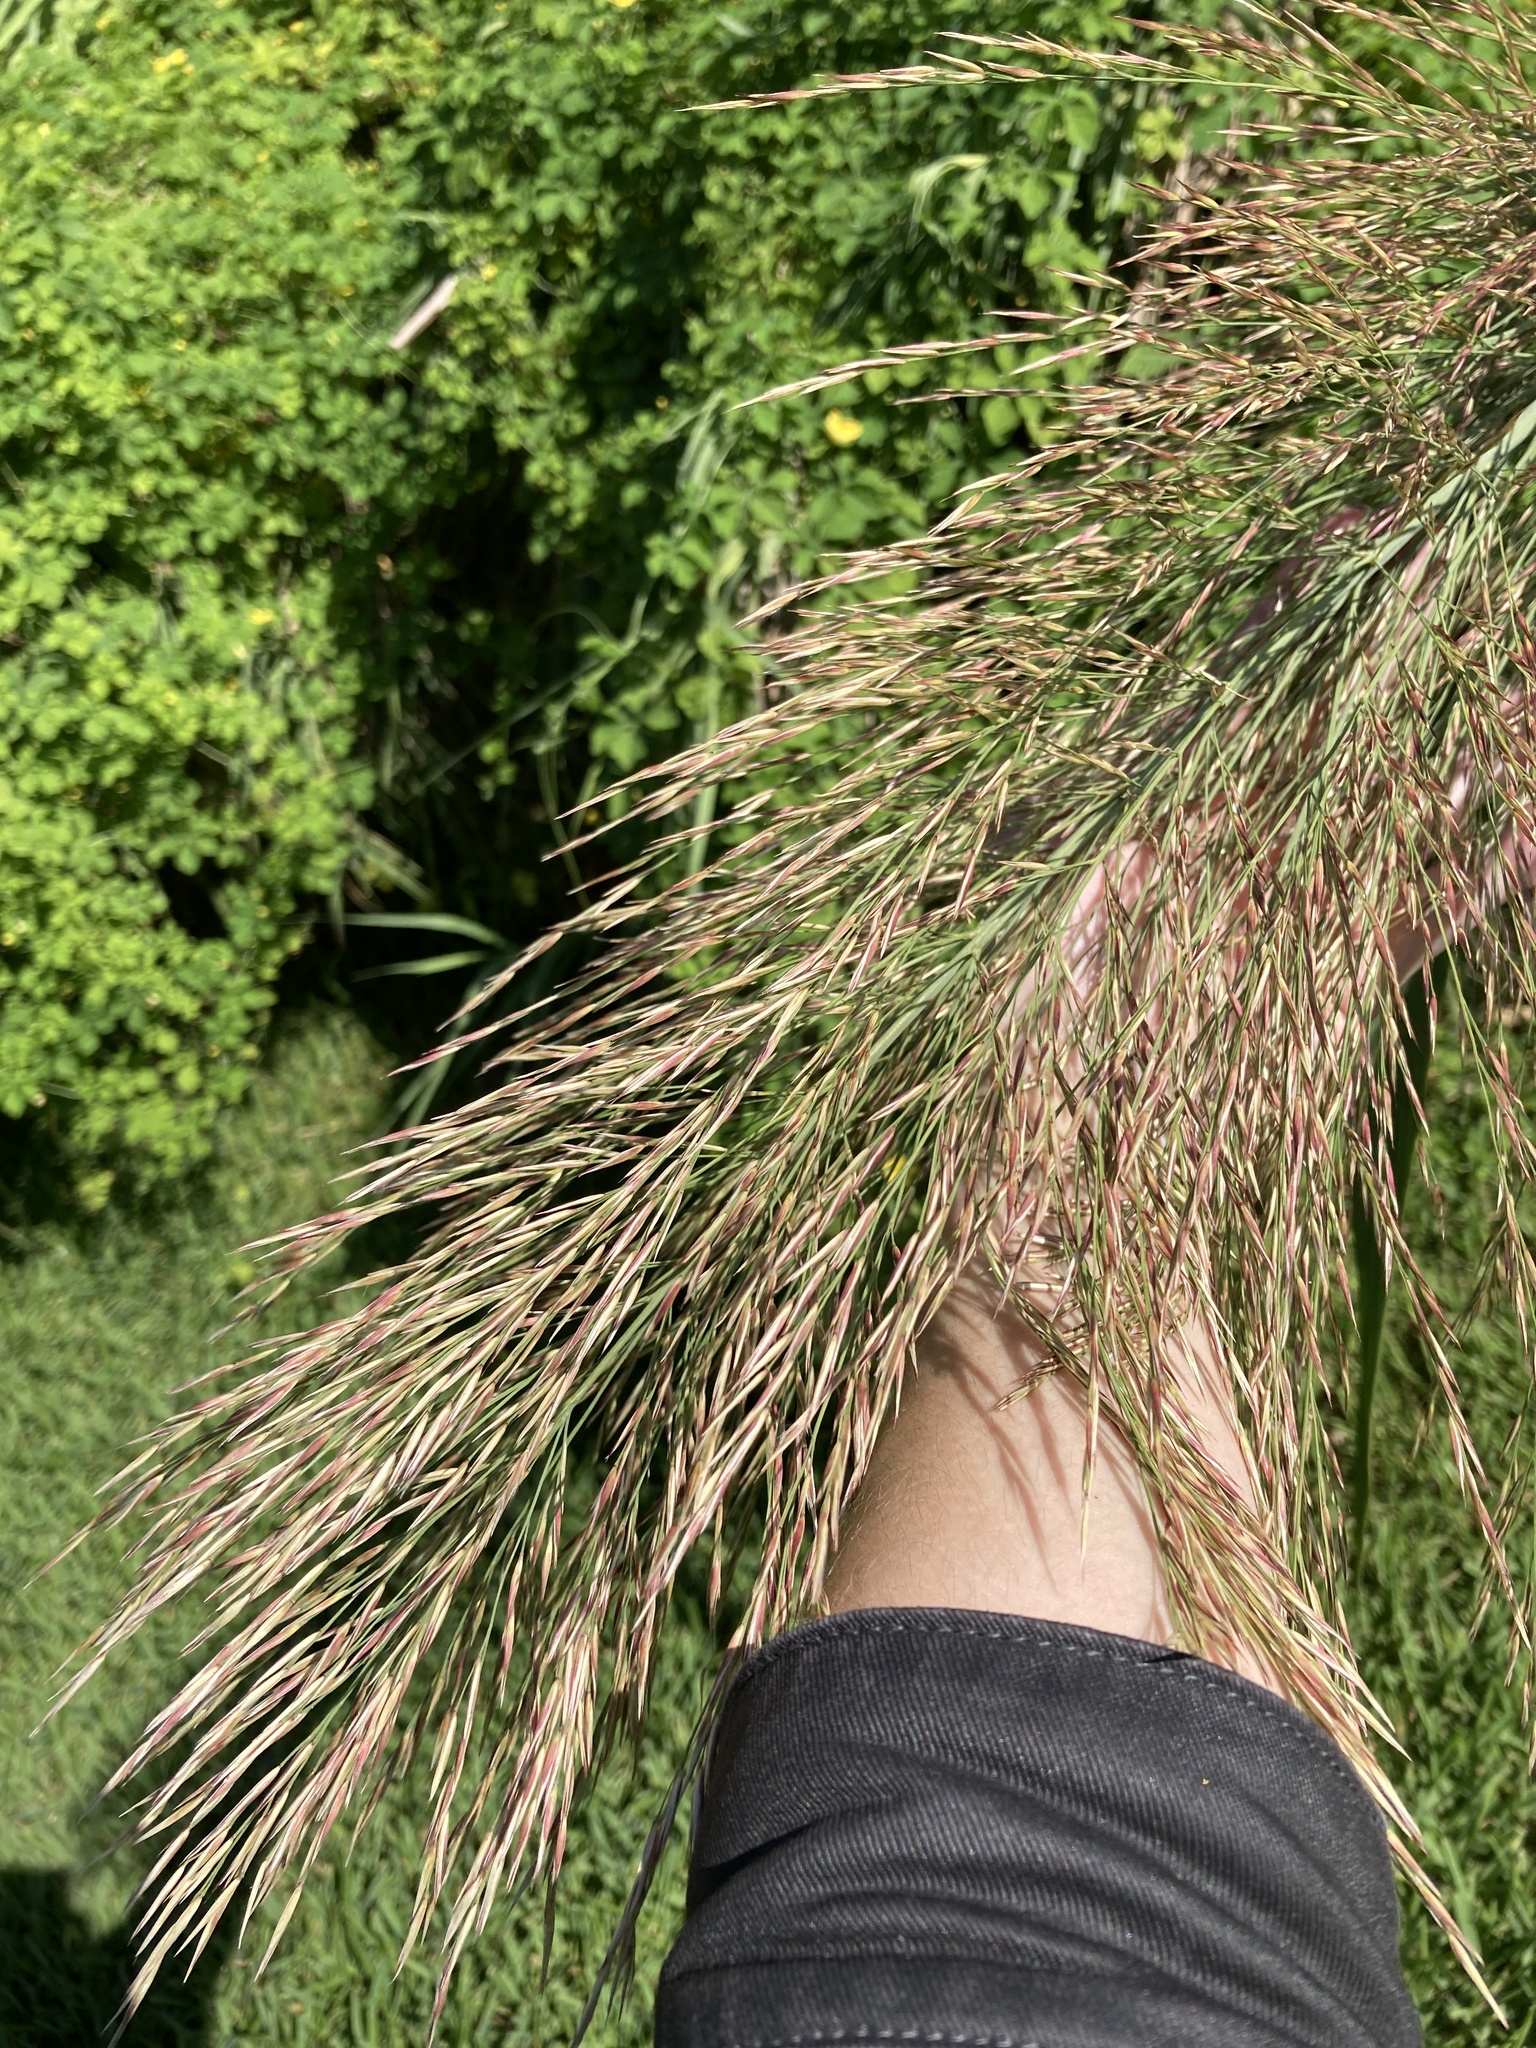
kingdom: Plantae
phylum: Tracheophyta
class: Liliopsida
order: Poales
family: Poaceae
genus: Arundo
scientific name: Arundo donax
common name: Giant reed
